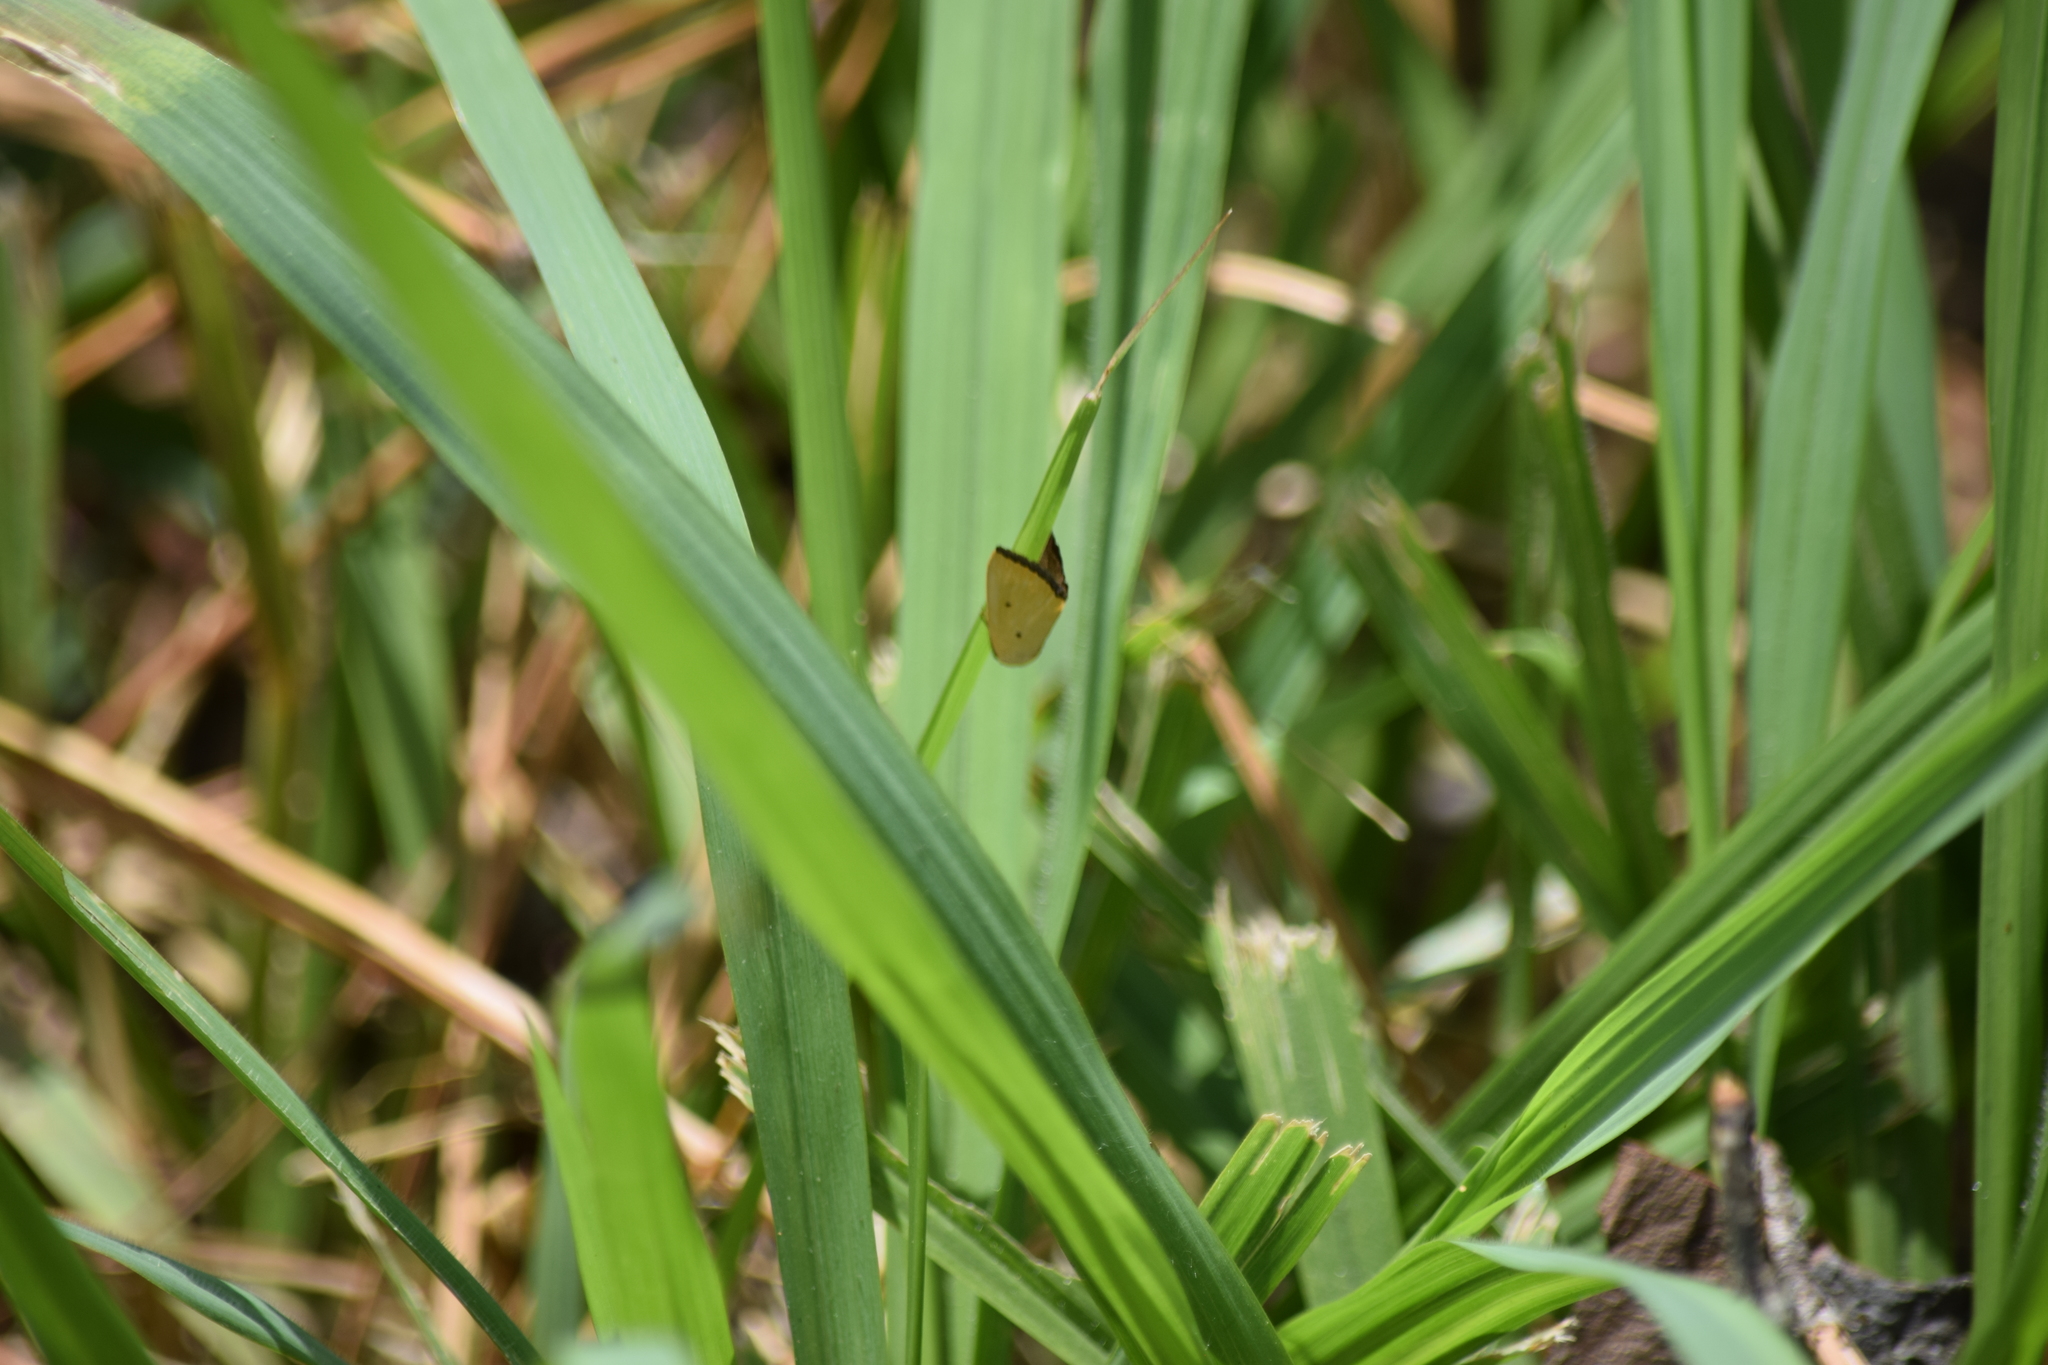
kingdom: Animalia
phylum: Arthropoda
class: Insecta
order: Lepidoptera
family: Noctuidae
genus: Marimatha
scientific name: Marimatha nigrofimbria
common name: Black-bordered lemon moth
